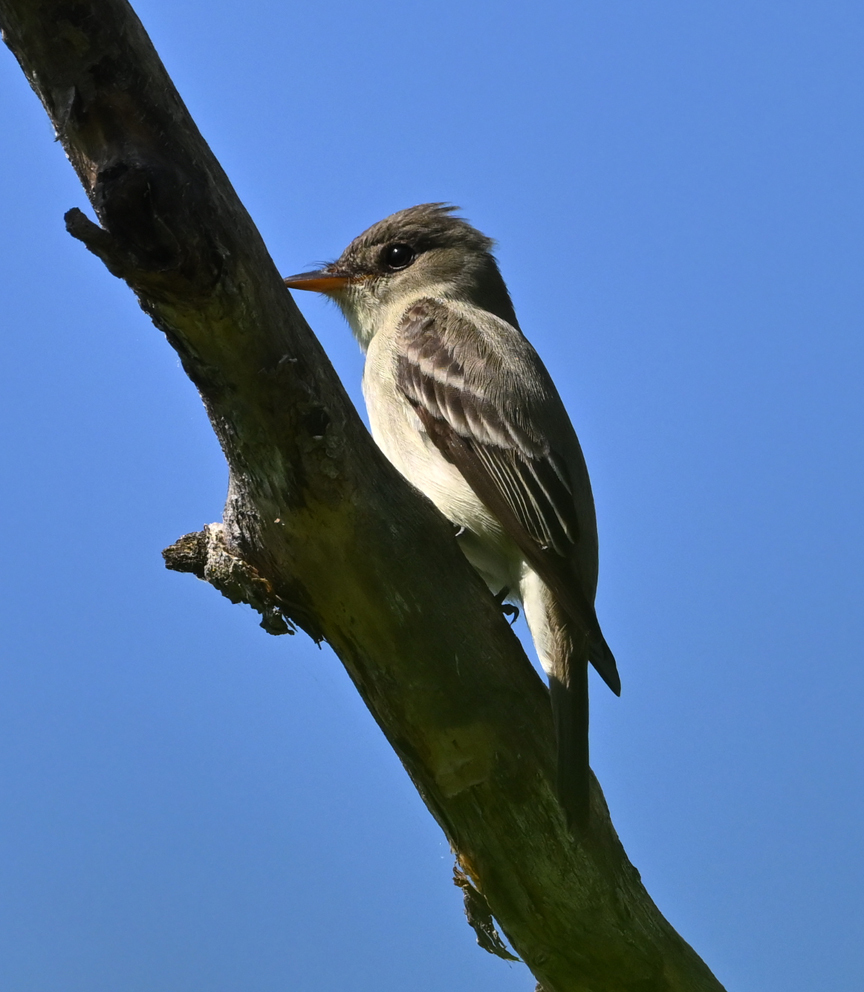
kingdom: Animalia
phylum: Chordata
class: Aves
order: Passeriformes
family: Tyrannidae
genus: Contopus
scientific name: Contopus virens
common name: Eastern wood-pewee
